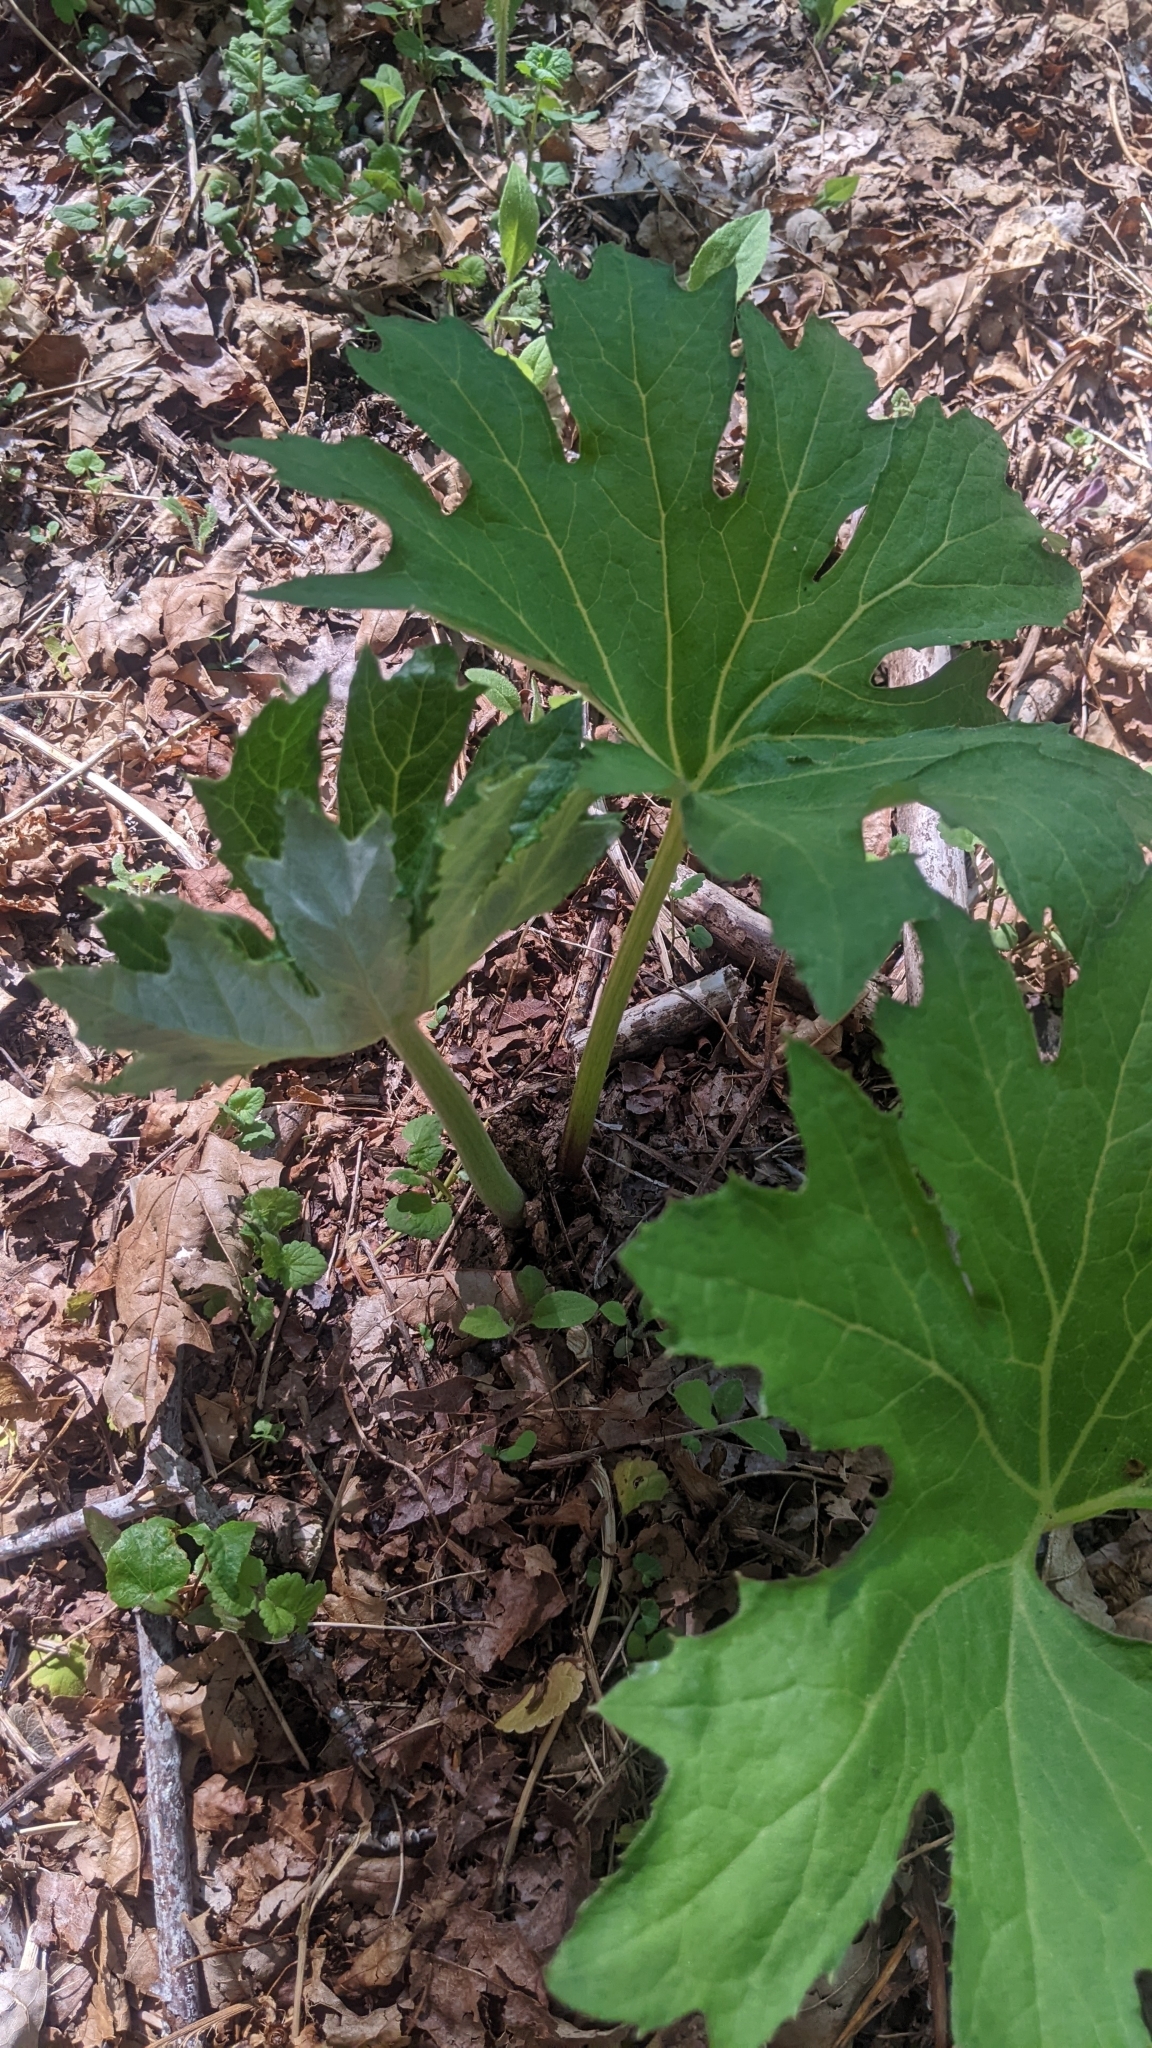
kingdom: Plantae
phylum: Tracheophyta
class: Magnoliopsida
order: Asterales
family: Asteraceae
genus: Petasites
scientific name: Petasites frigidus
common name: Arctic butterbur
